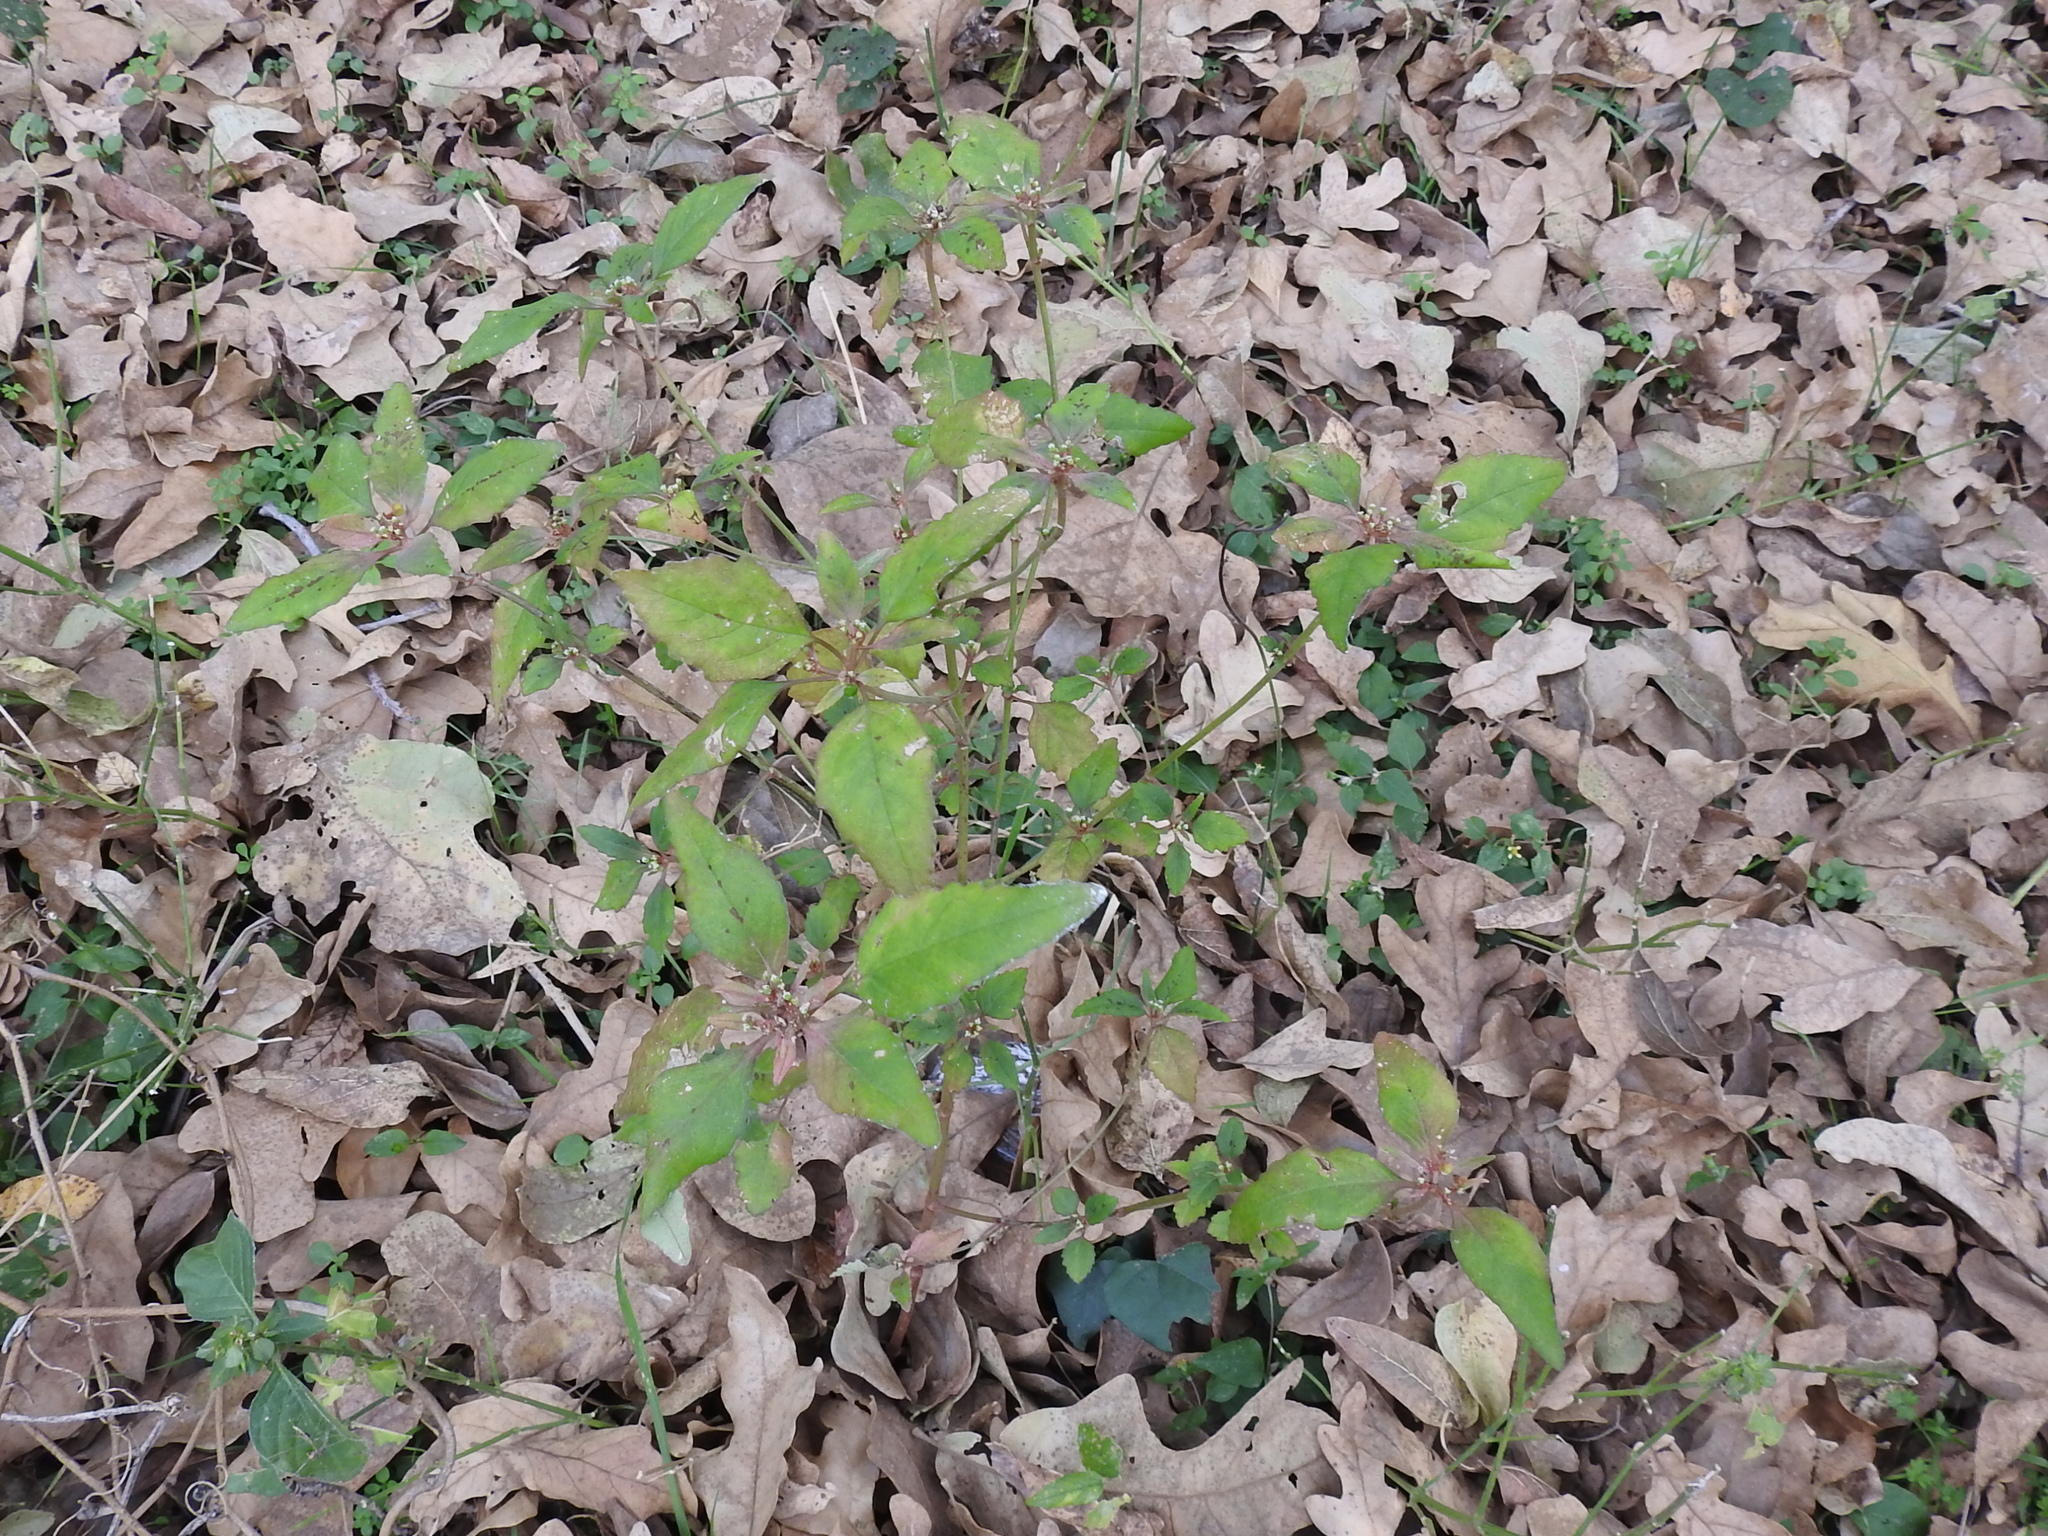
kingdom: Plantae
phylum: Tracheophyta
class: Magnoliopsida
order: Malpighiales
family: Euphorbiaceae
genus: Euphorbia
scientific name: Euphorbia dentata
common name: Dentate spurge
